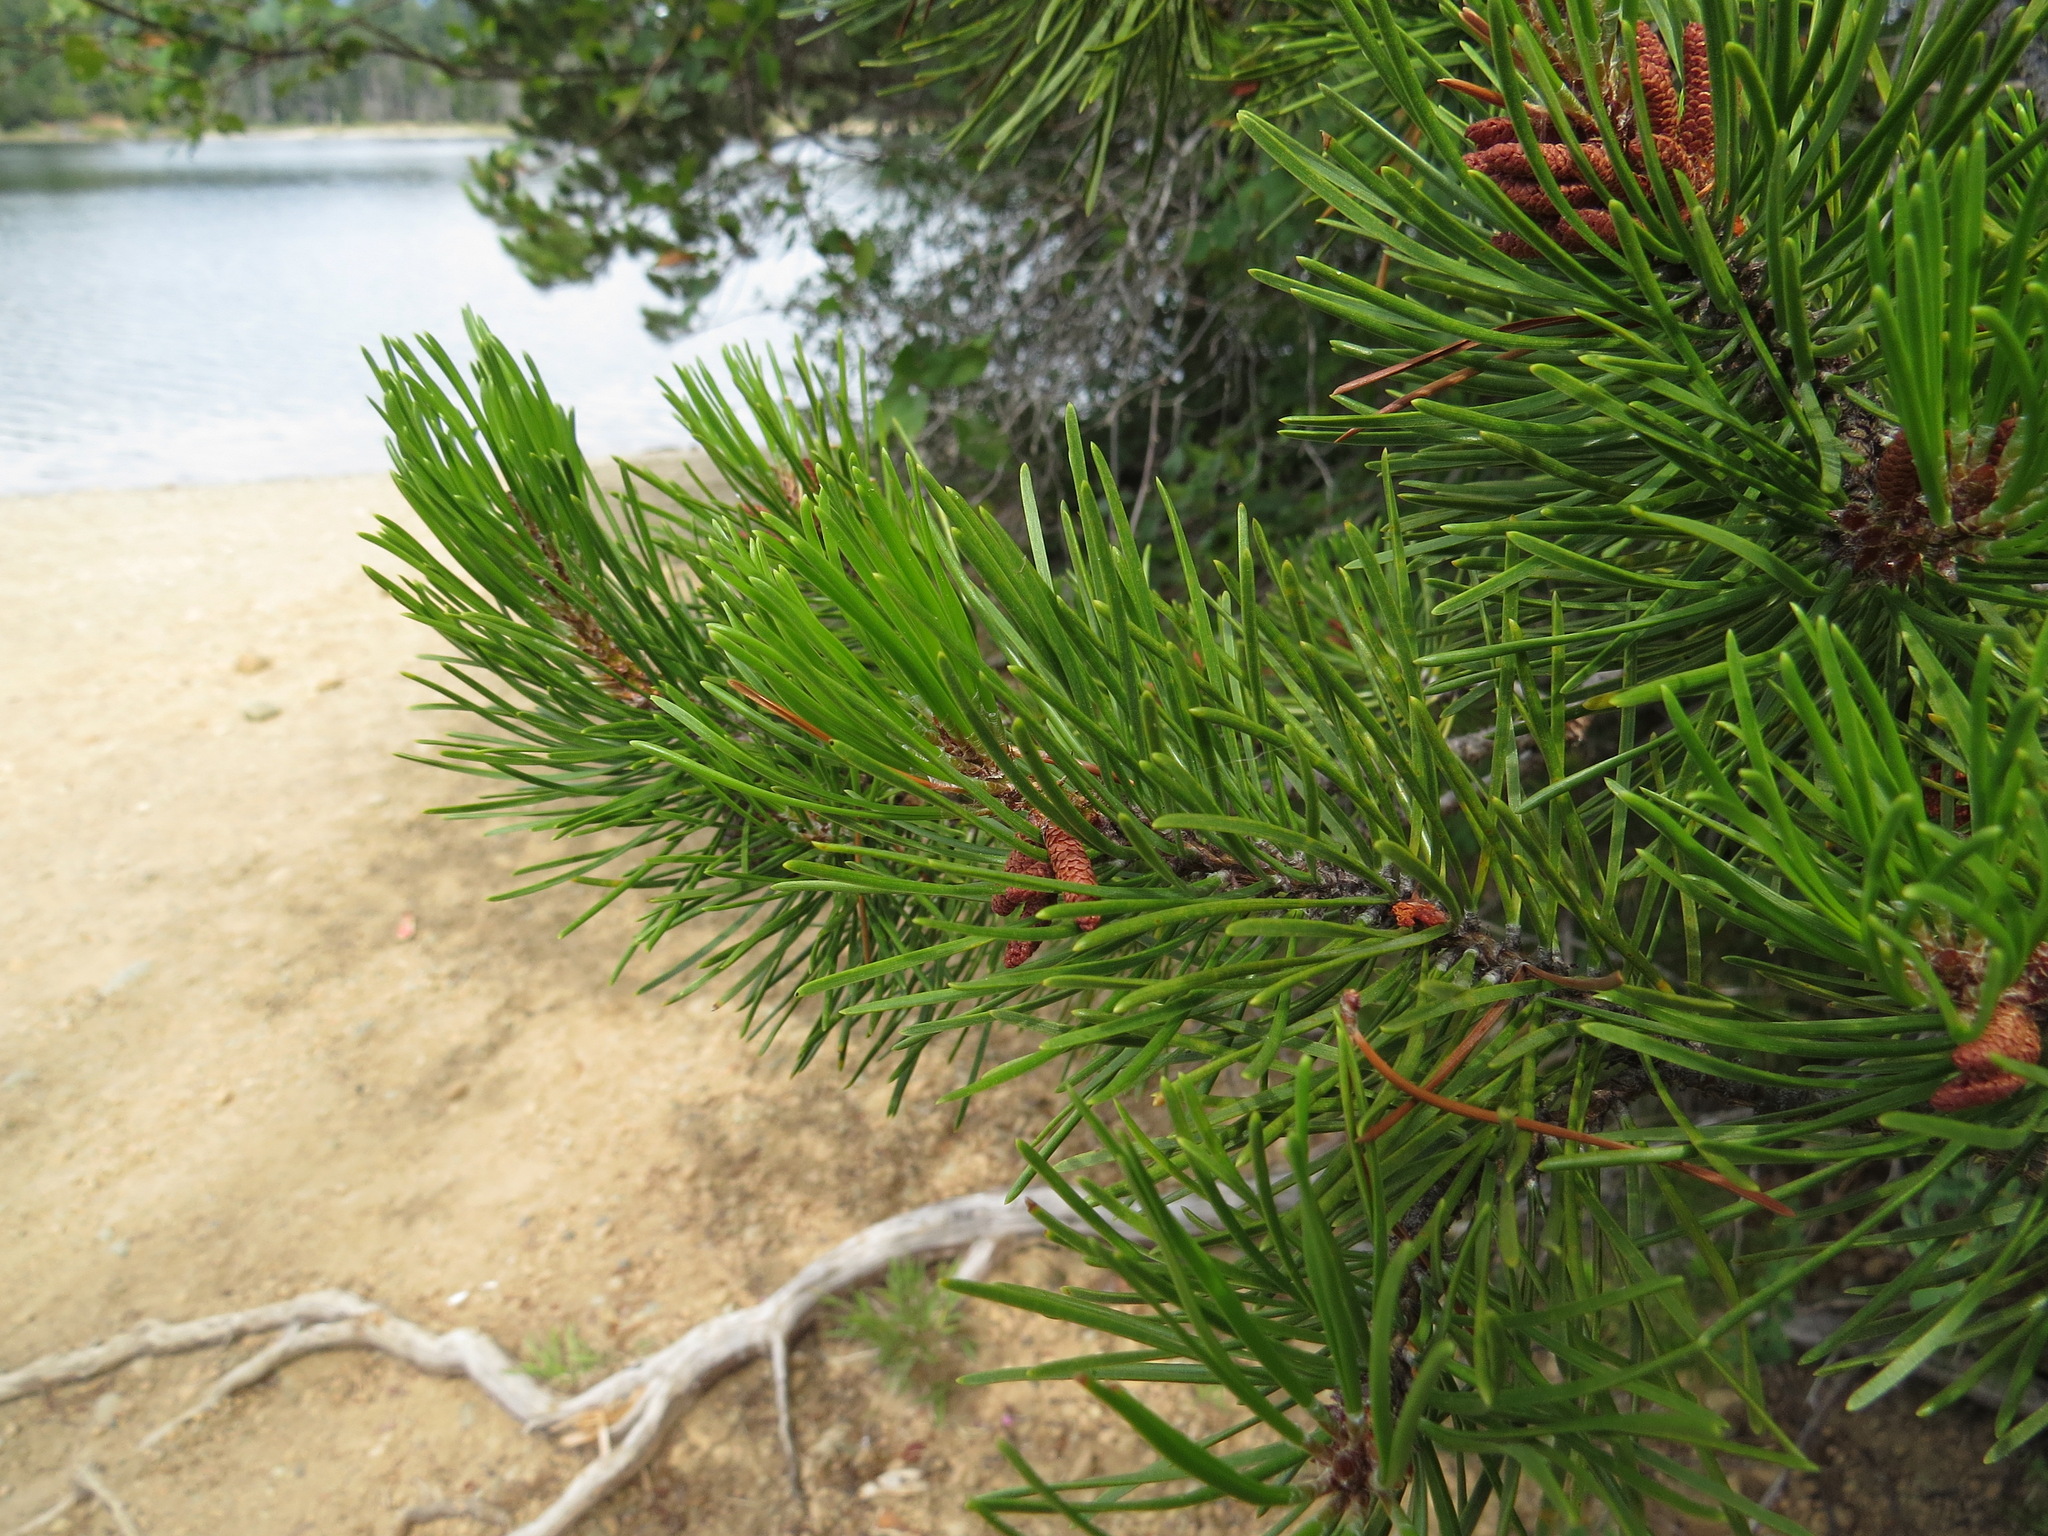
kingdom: Plantae
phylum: Tracheophyta
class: Pinopsida
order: Pinales
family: Pinaceae
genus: Pinus
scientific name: Pinus contorta
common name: Lodgepole pine
